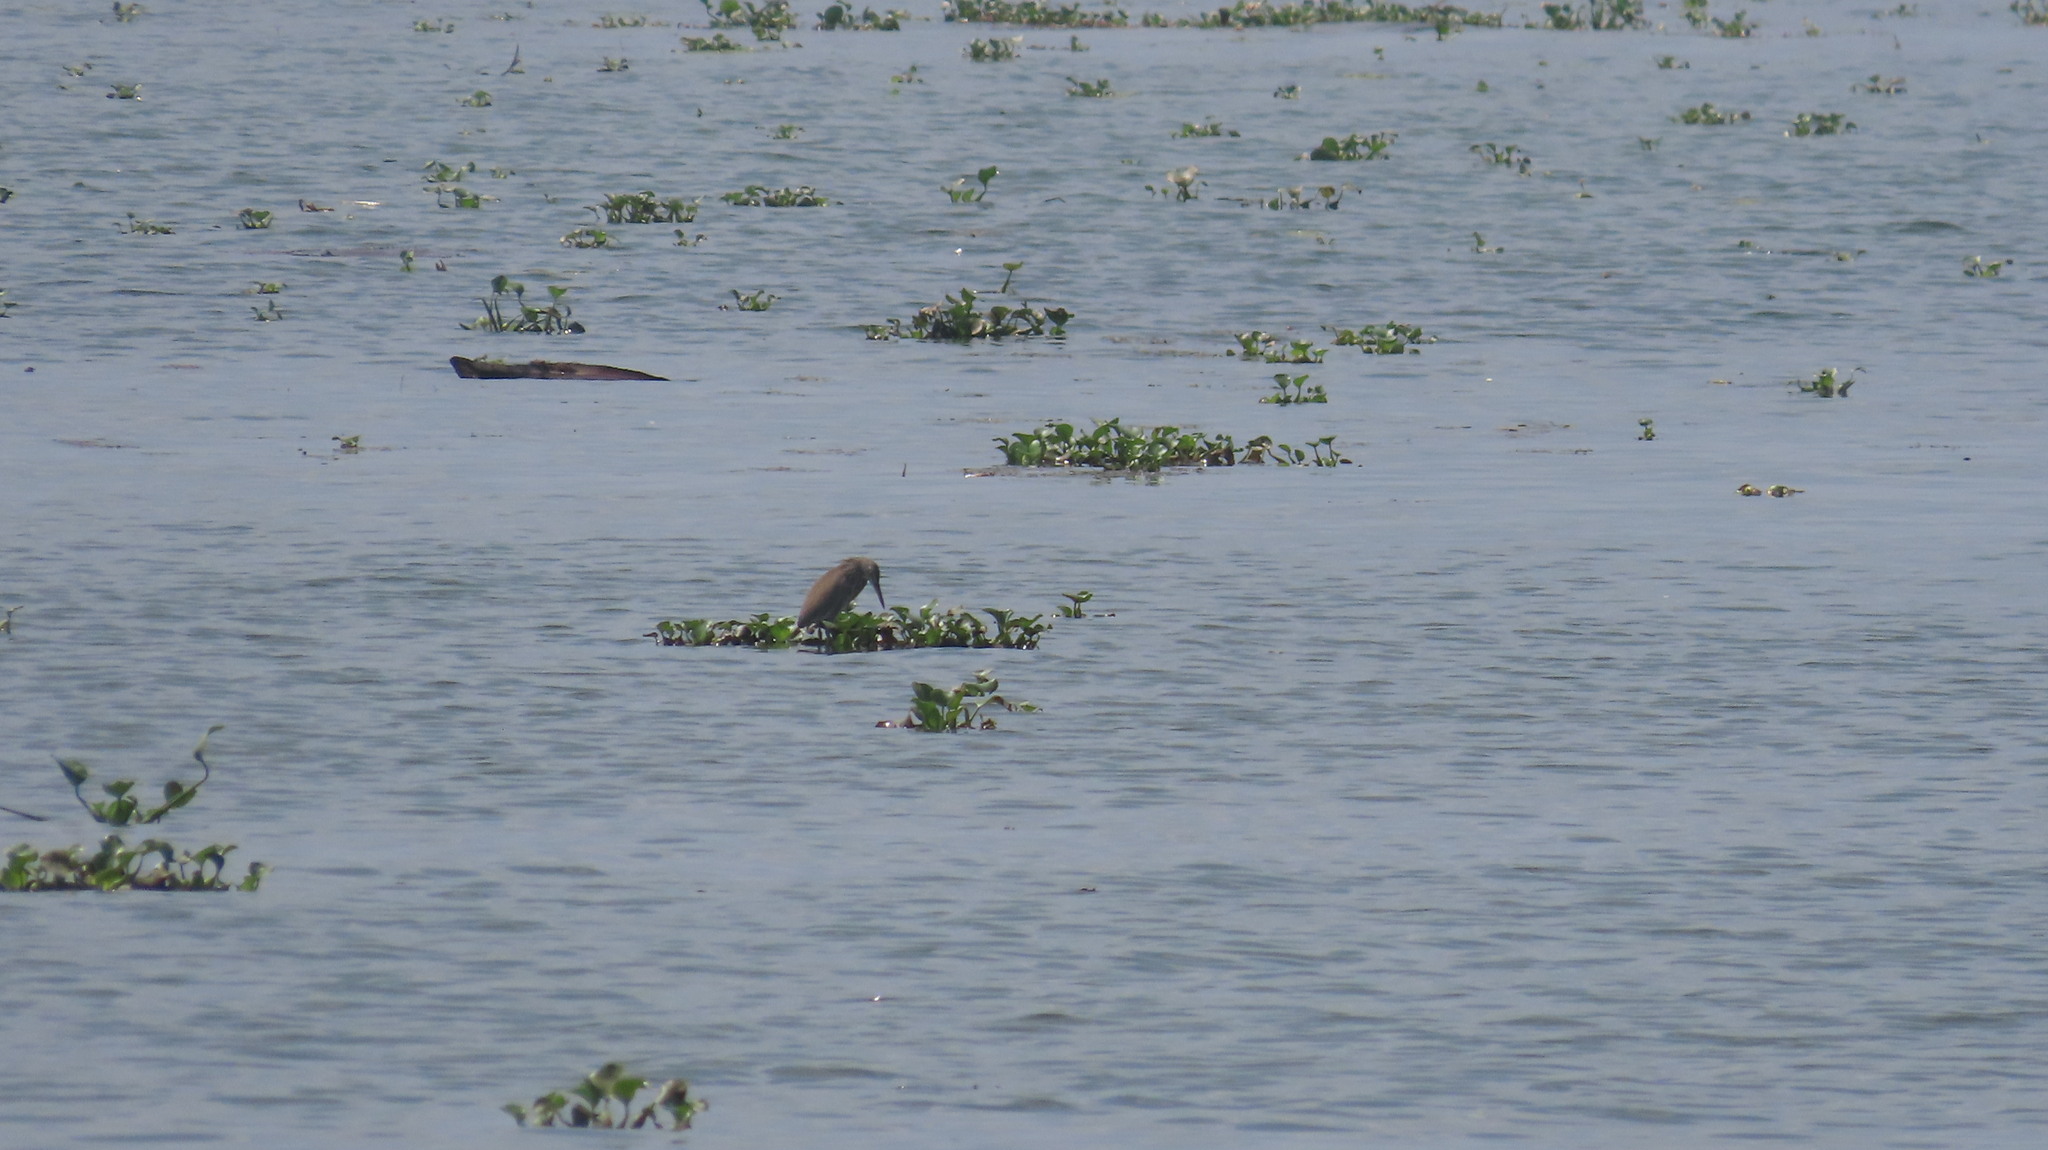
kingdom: Animalia
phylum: Chordata
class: Aves
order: Pelecaniformes
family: Ardeidae
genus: Ardeola
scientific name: Ardeola grayii
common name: Indian pond heron
